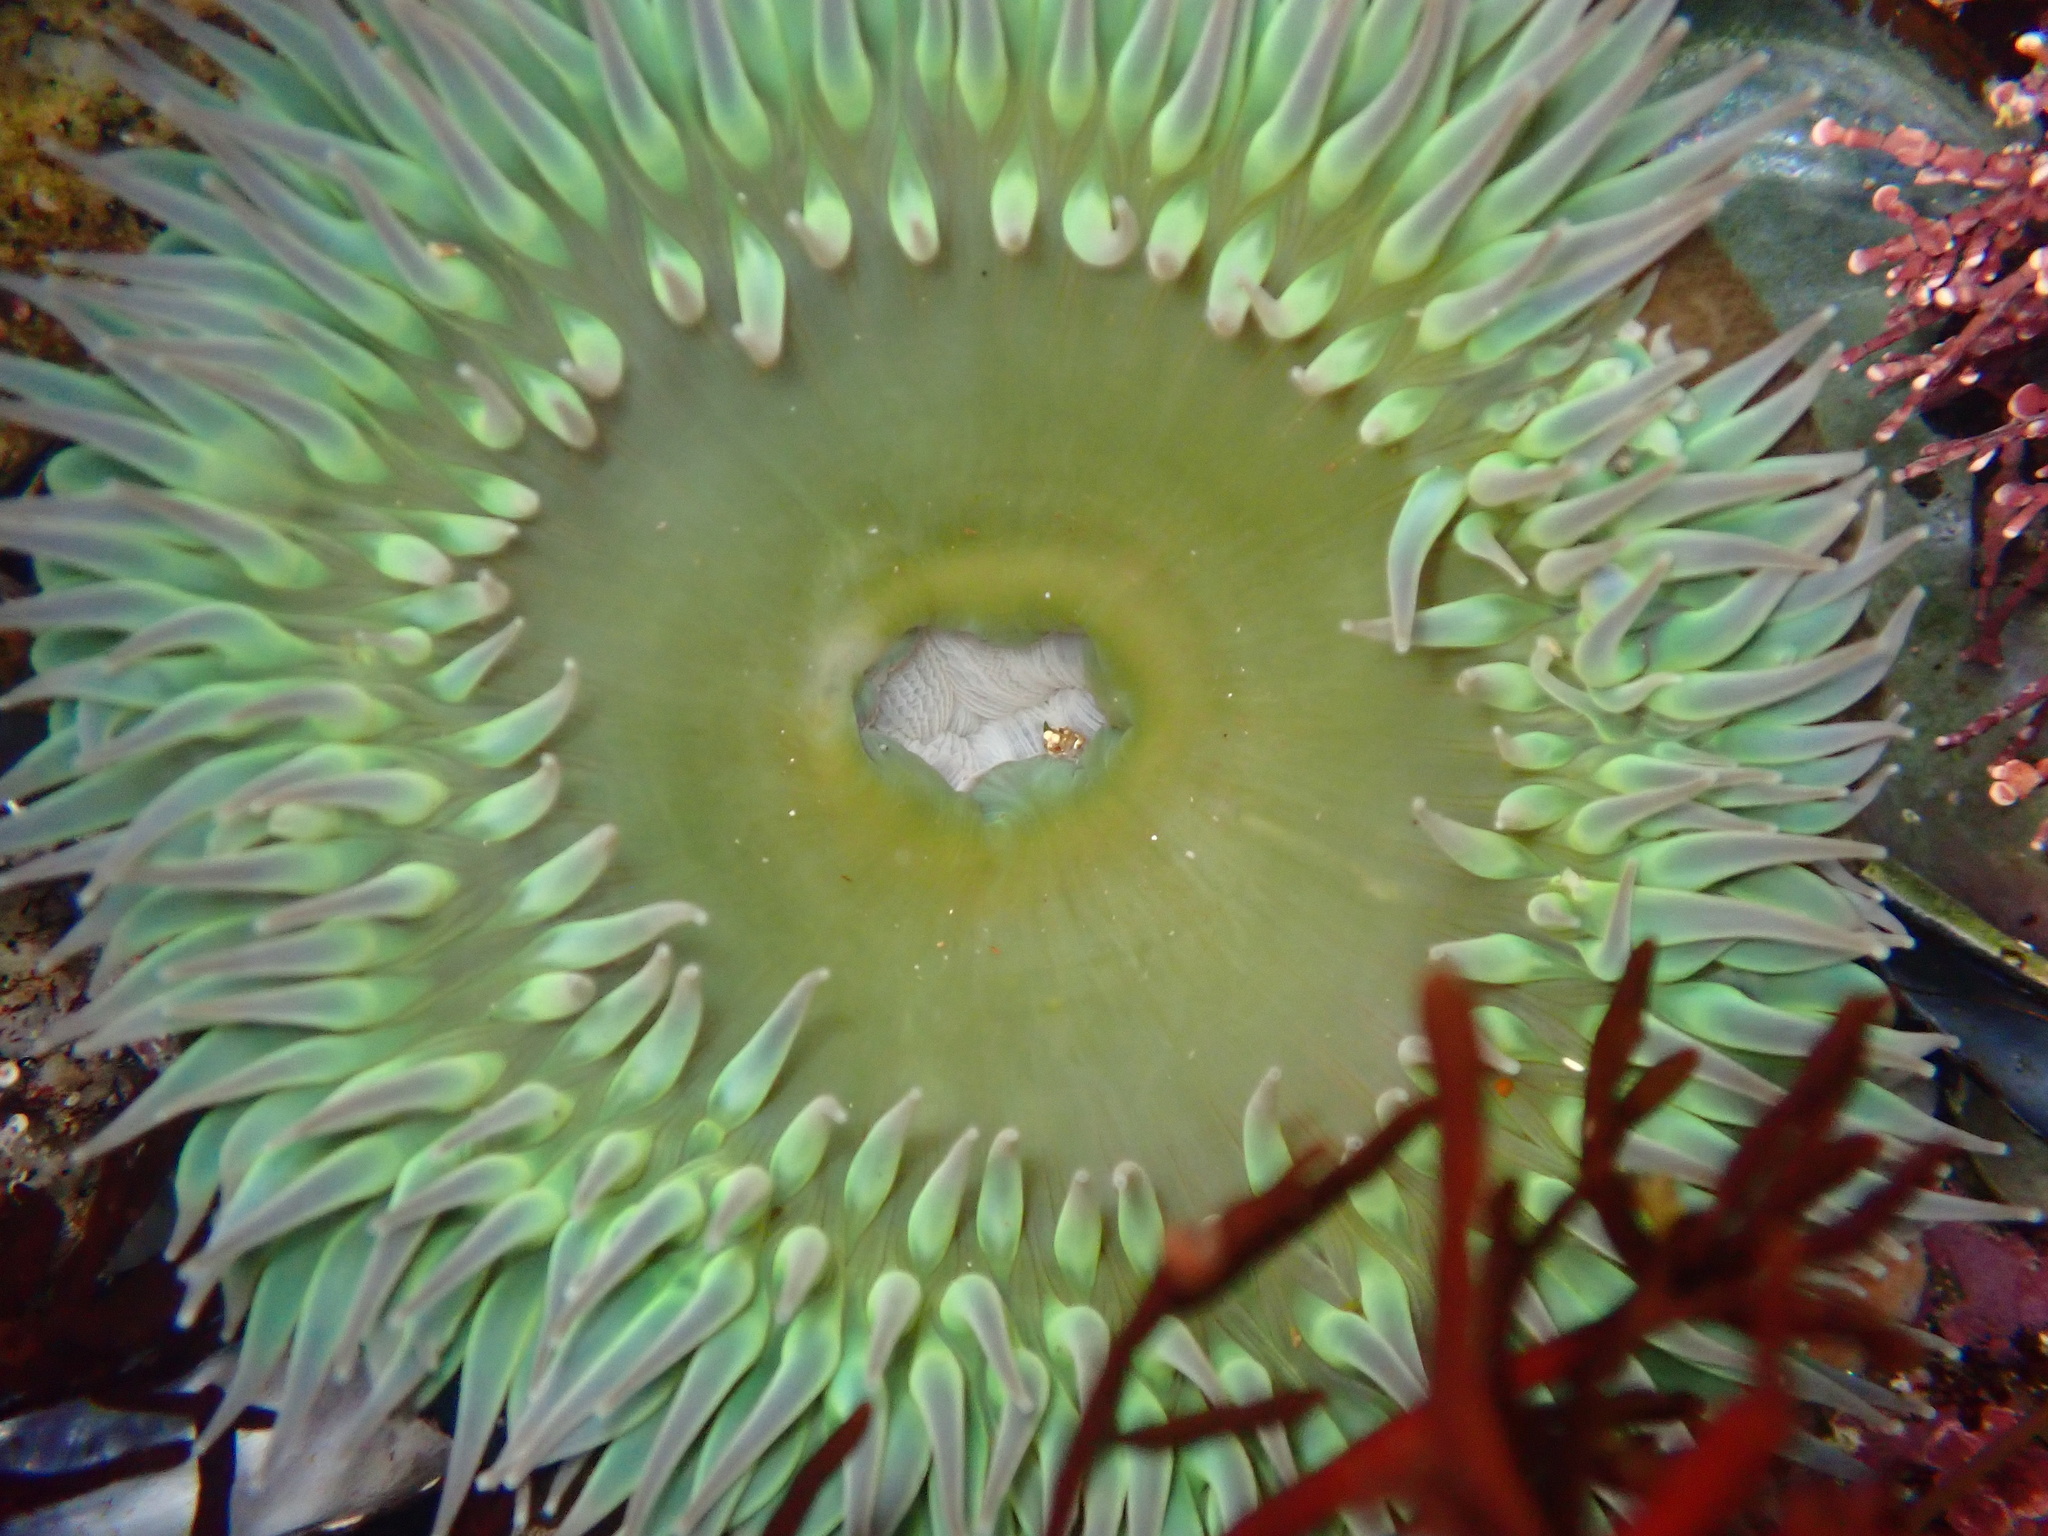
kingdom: Animalia
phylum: Cnidaria
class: Anthozoa
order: Actiniaria
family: Actiniidae
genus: Anthopleura
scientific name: Anthopleura xanthogrammica
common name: Giant green anemone
